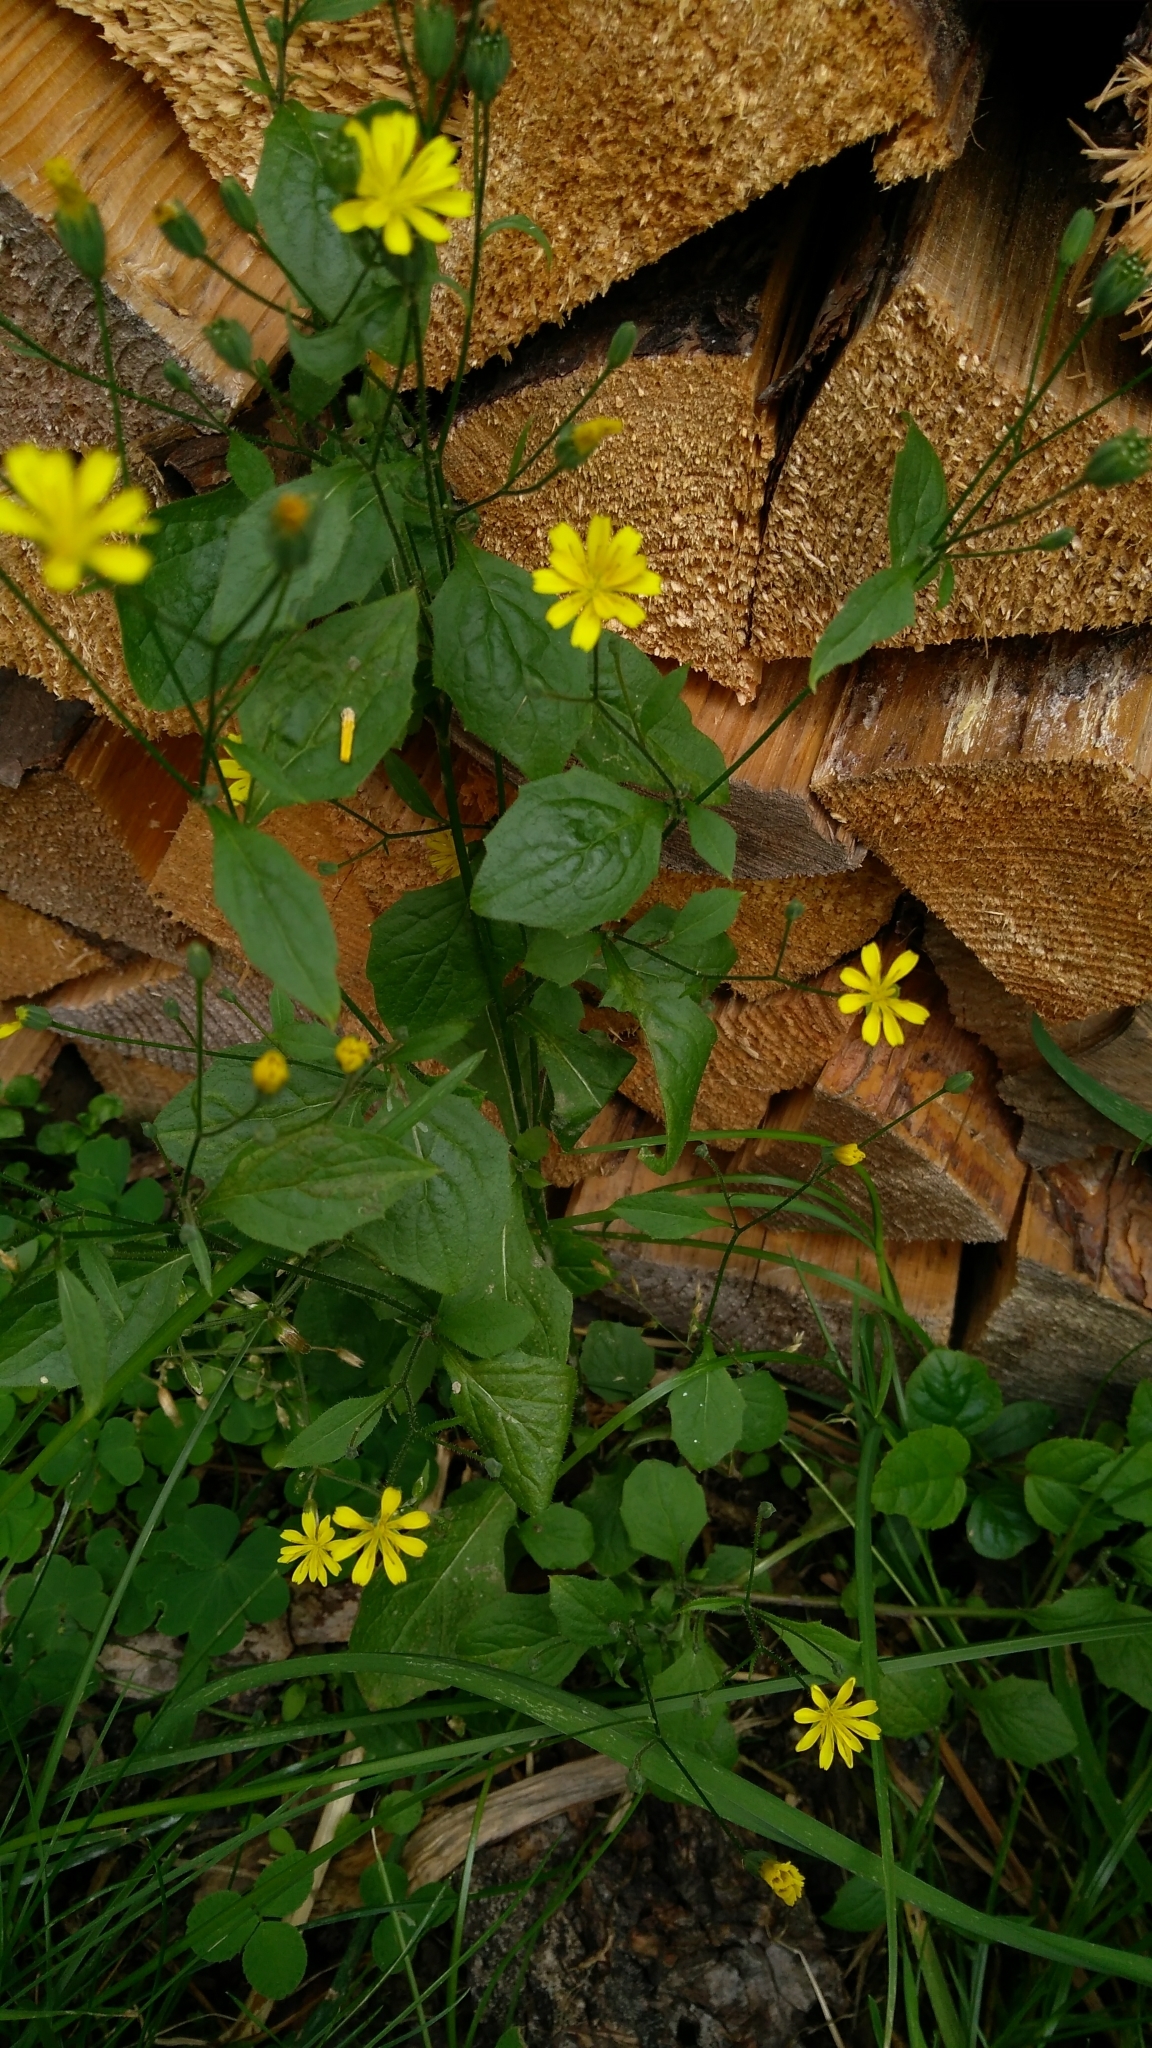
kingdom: Plantae
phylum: Tracheophyta
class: Magnoliopsida
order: Asterales
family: Asteraceae
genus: Lapsana
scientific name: Lapsana communis
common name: Nipplewort
